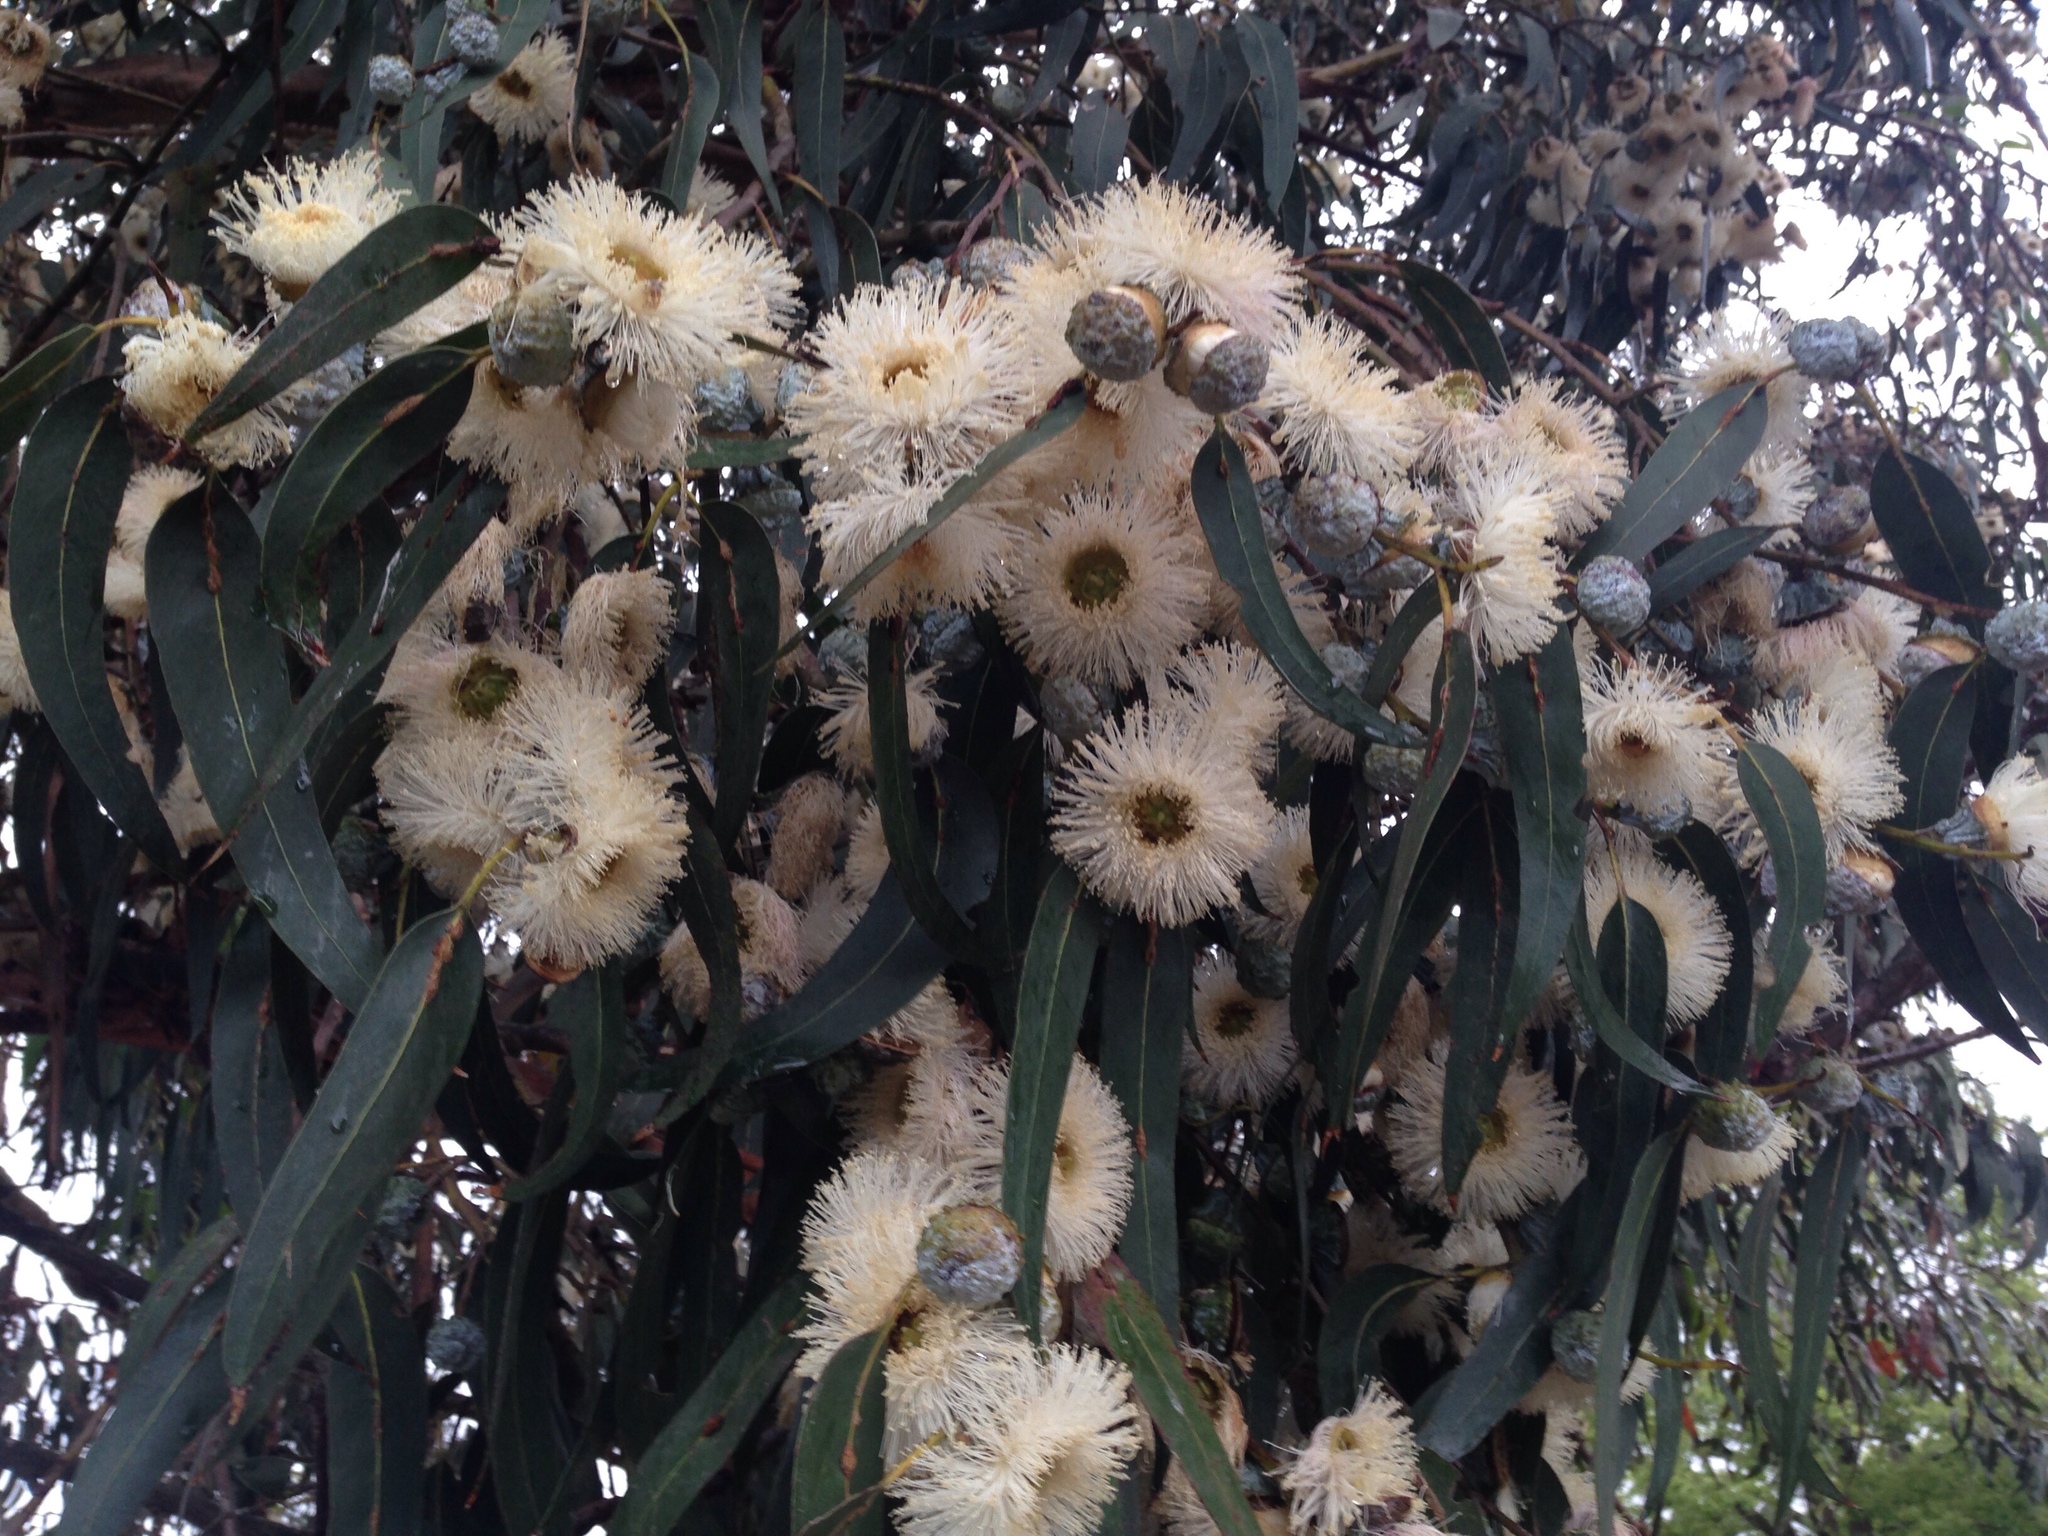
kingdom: Plantae
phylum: Tracheophyta
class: Magnoliopsida
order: Myrtales
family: Myrtaceae
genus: Eucalyptus
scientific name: Eucalyptus globulus
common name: Southern blue-gum
